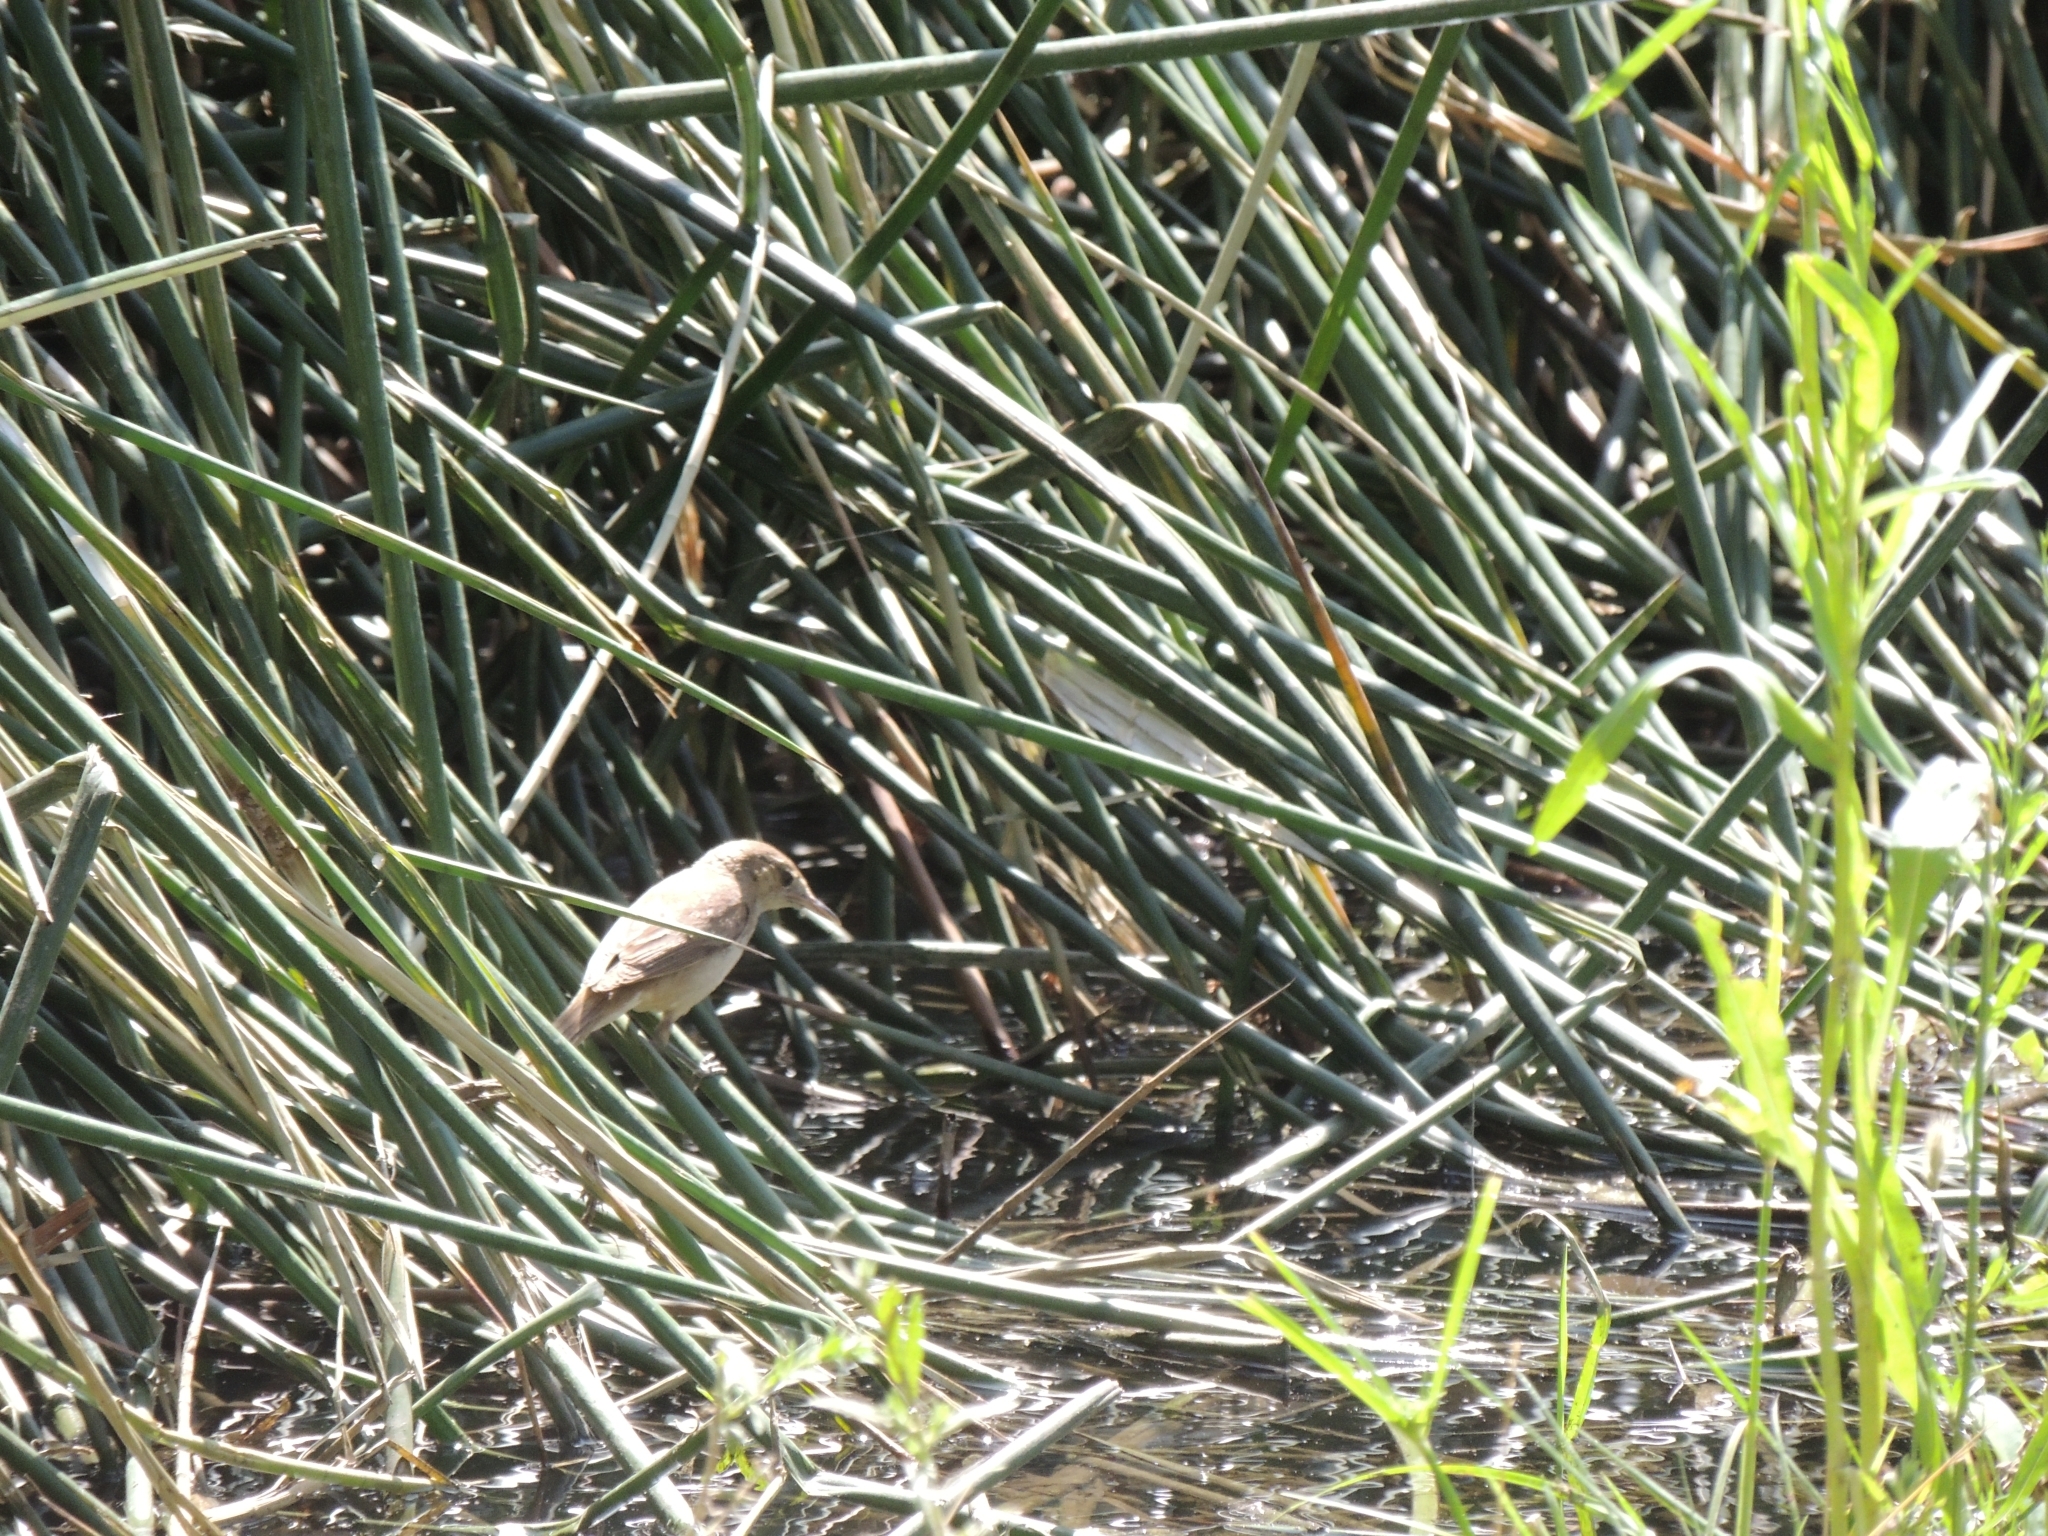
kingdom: Animalia
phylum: Chordata
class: Aves
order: Passeriformes
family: Acrocephalidae
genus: Acrocephalus
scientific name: Acrocephalus australis
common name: Australian reed warbler
